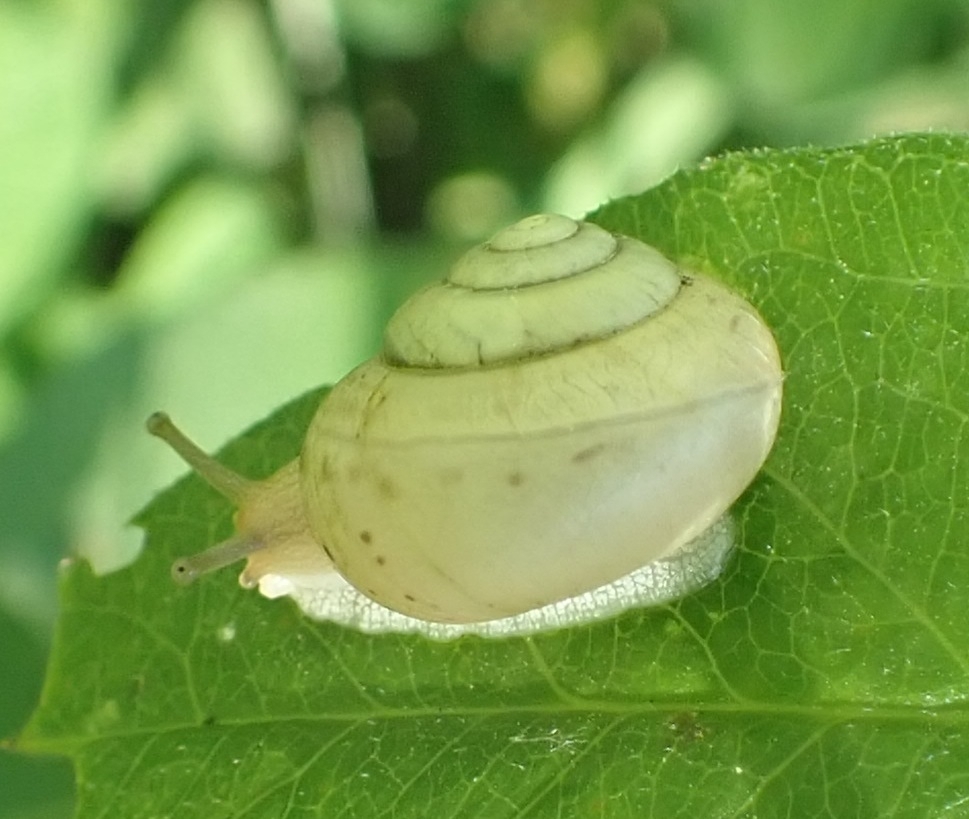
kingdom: Animalia
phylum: Mollusca
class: Gastropoda
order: Stylommatophora
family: Camaenidae
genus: Fruticicola
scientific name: Fruticicola fruticum
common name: Bush snail
